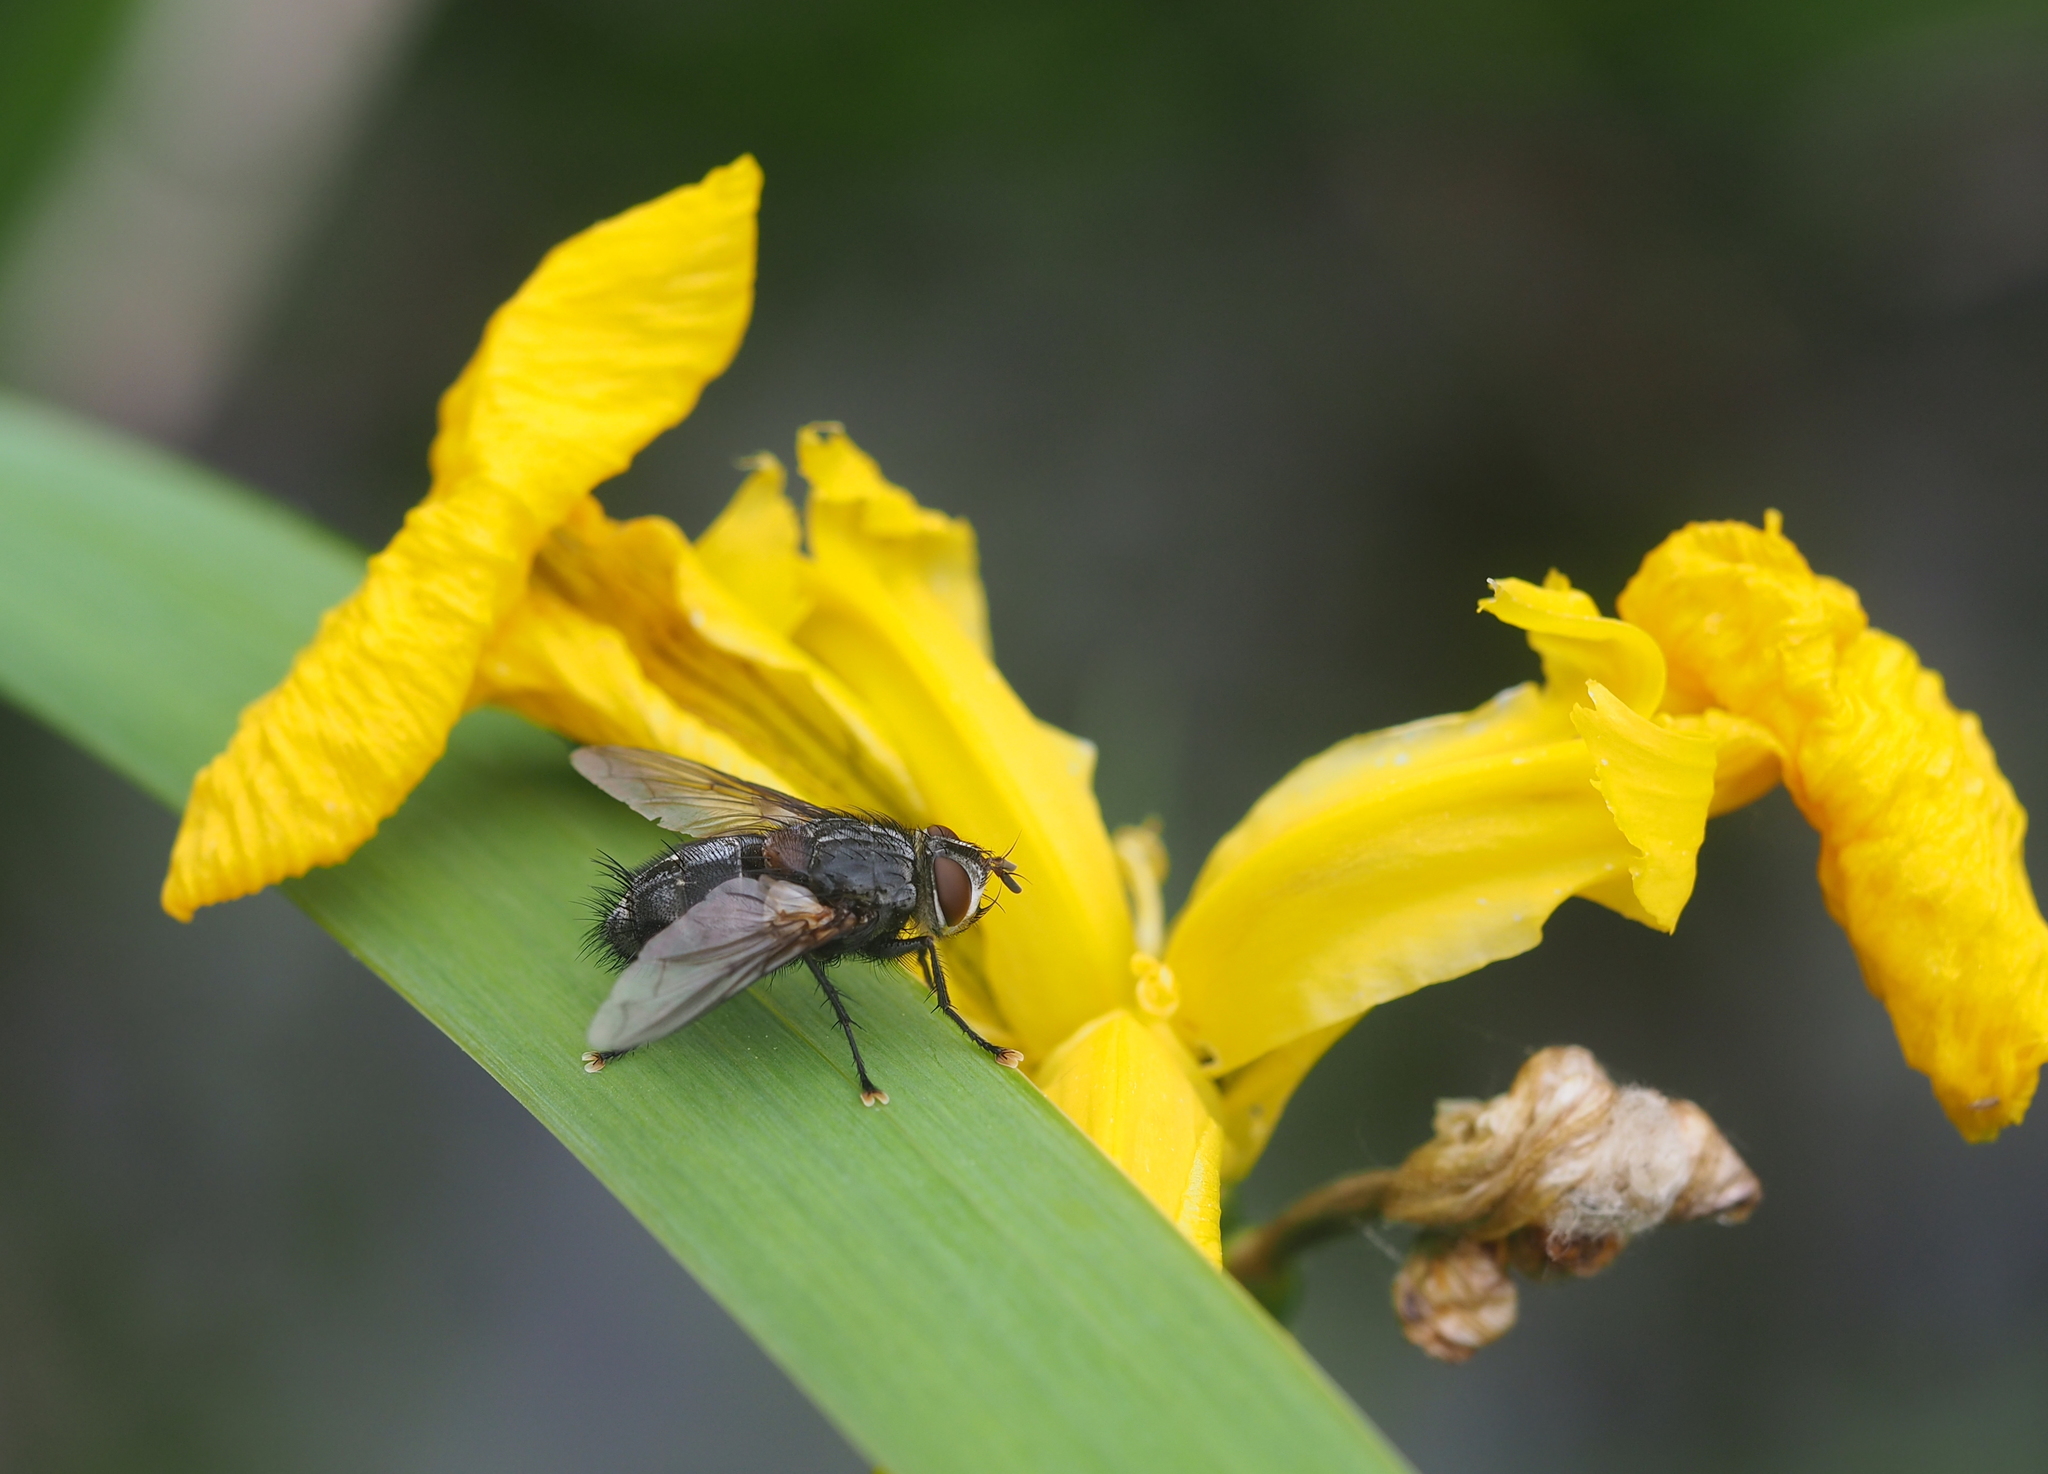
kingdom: Animalia
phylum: Arthropoda
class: Insecta
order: Diptera
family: Tachinidae
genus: Blepharipa
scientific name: Blepharipa pratensis
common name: Parasitic fly
